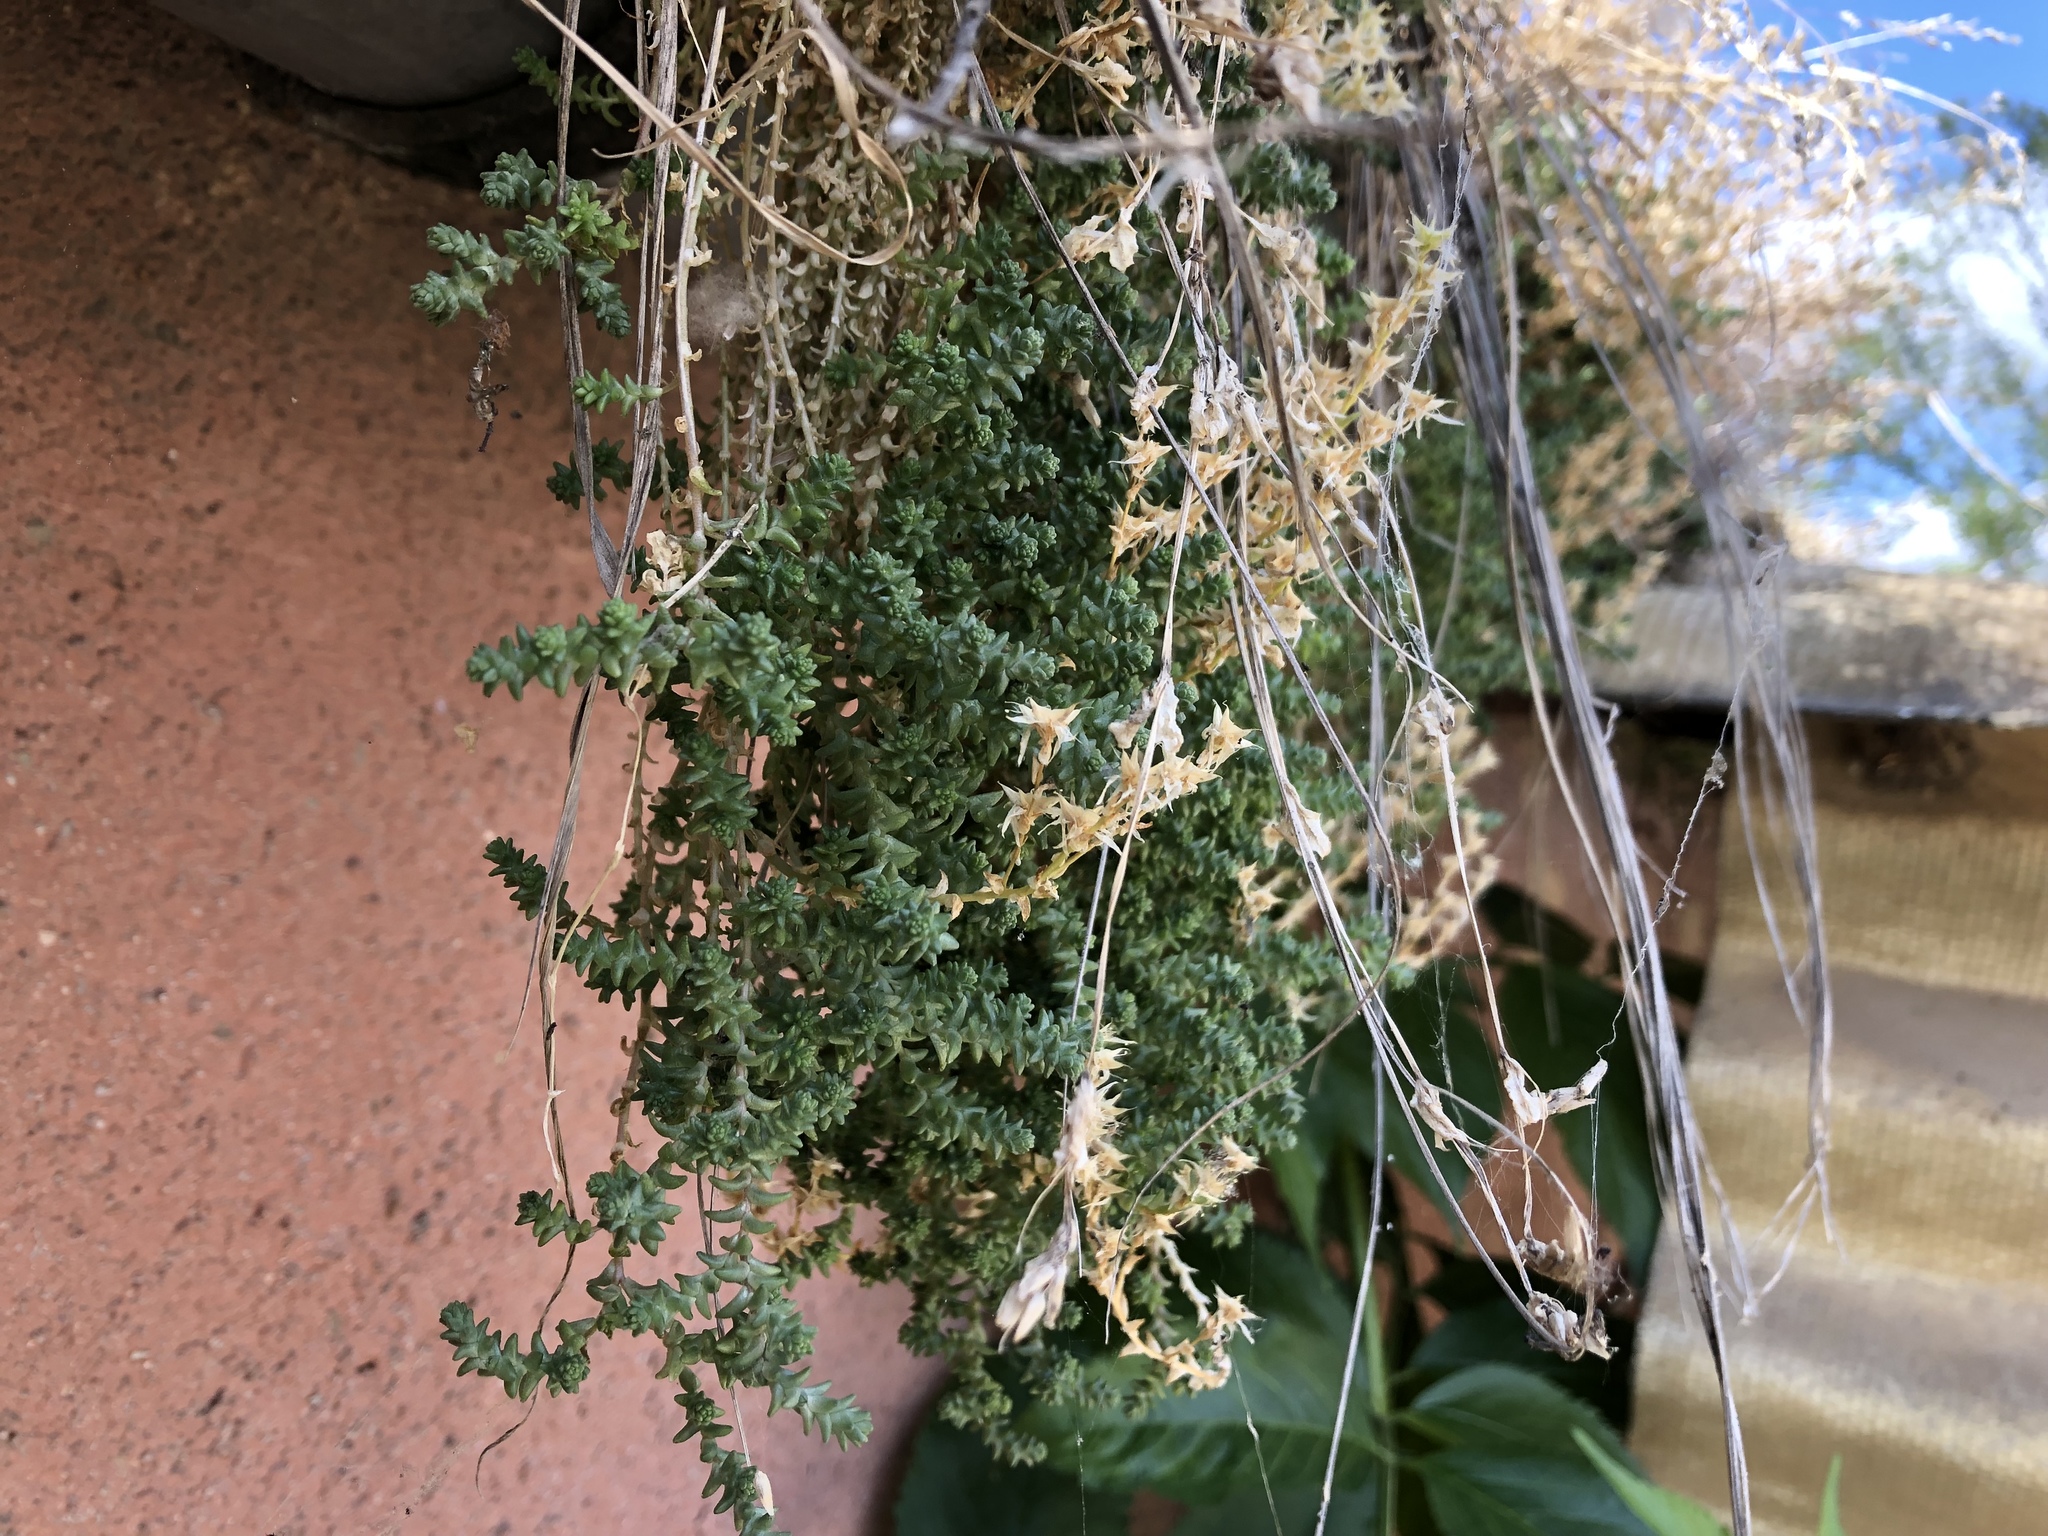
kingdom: Plantae
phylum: Tracheophyta
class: Magnoliopsida
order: Saxifragales
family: Crassulaceae
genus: Sedum
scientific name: Sedum acre
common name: Biting stonecrop
